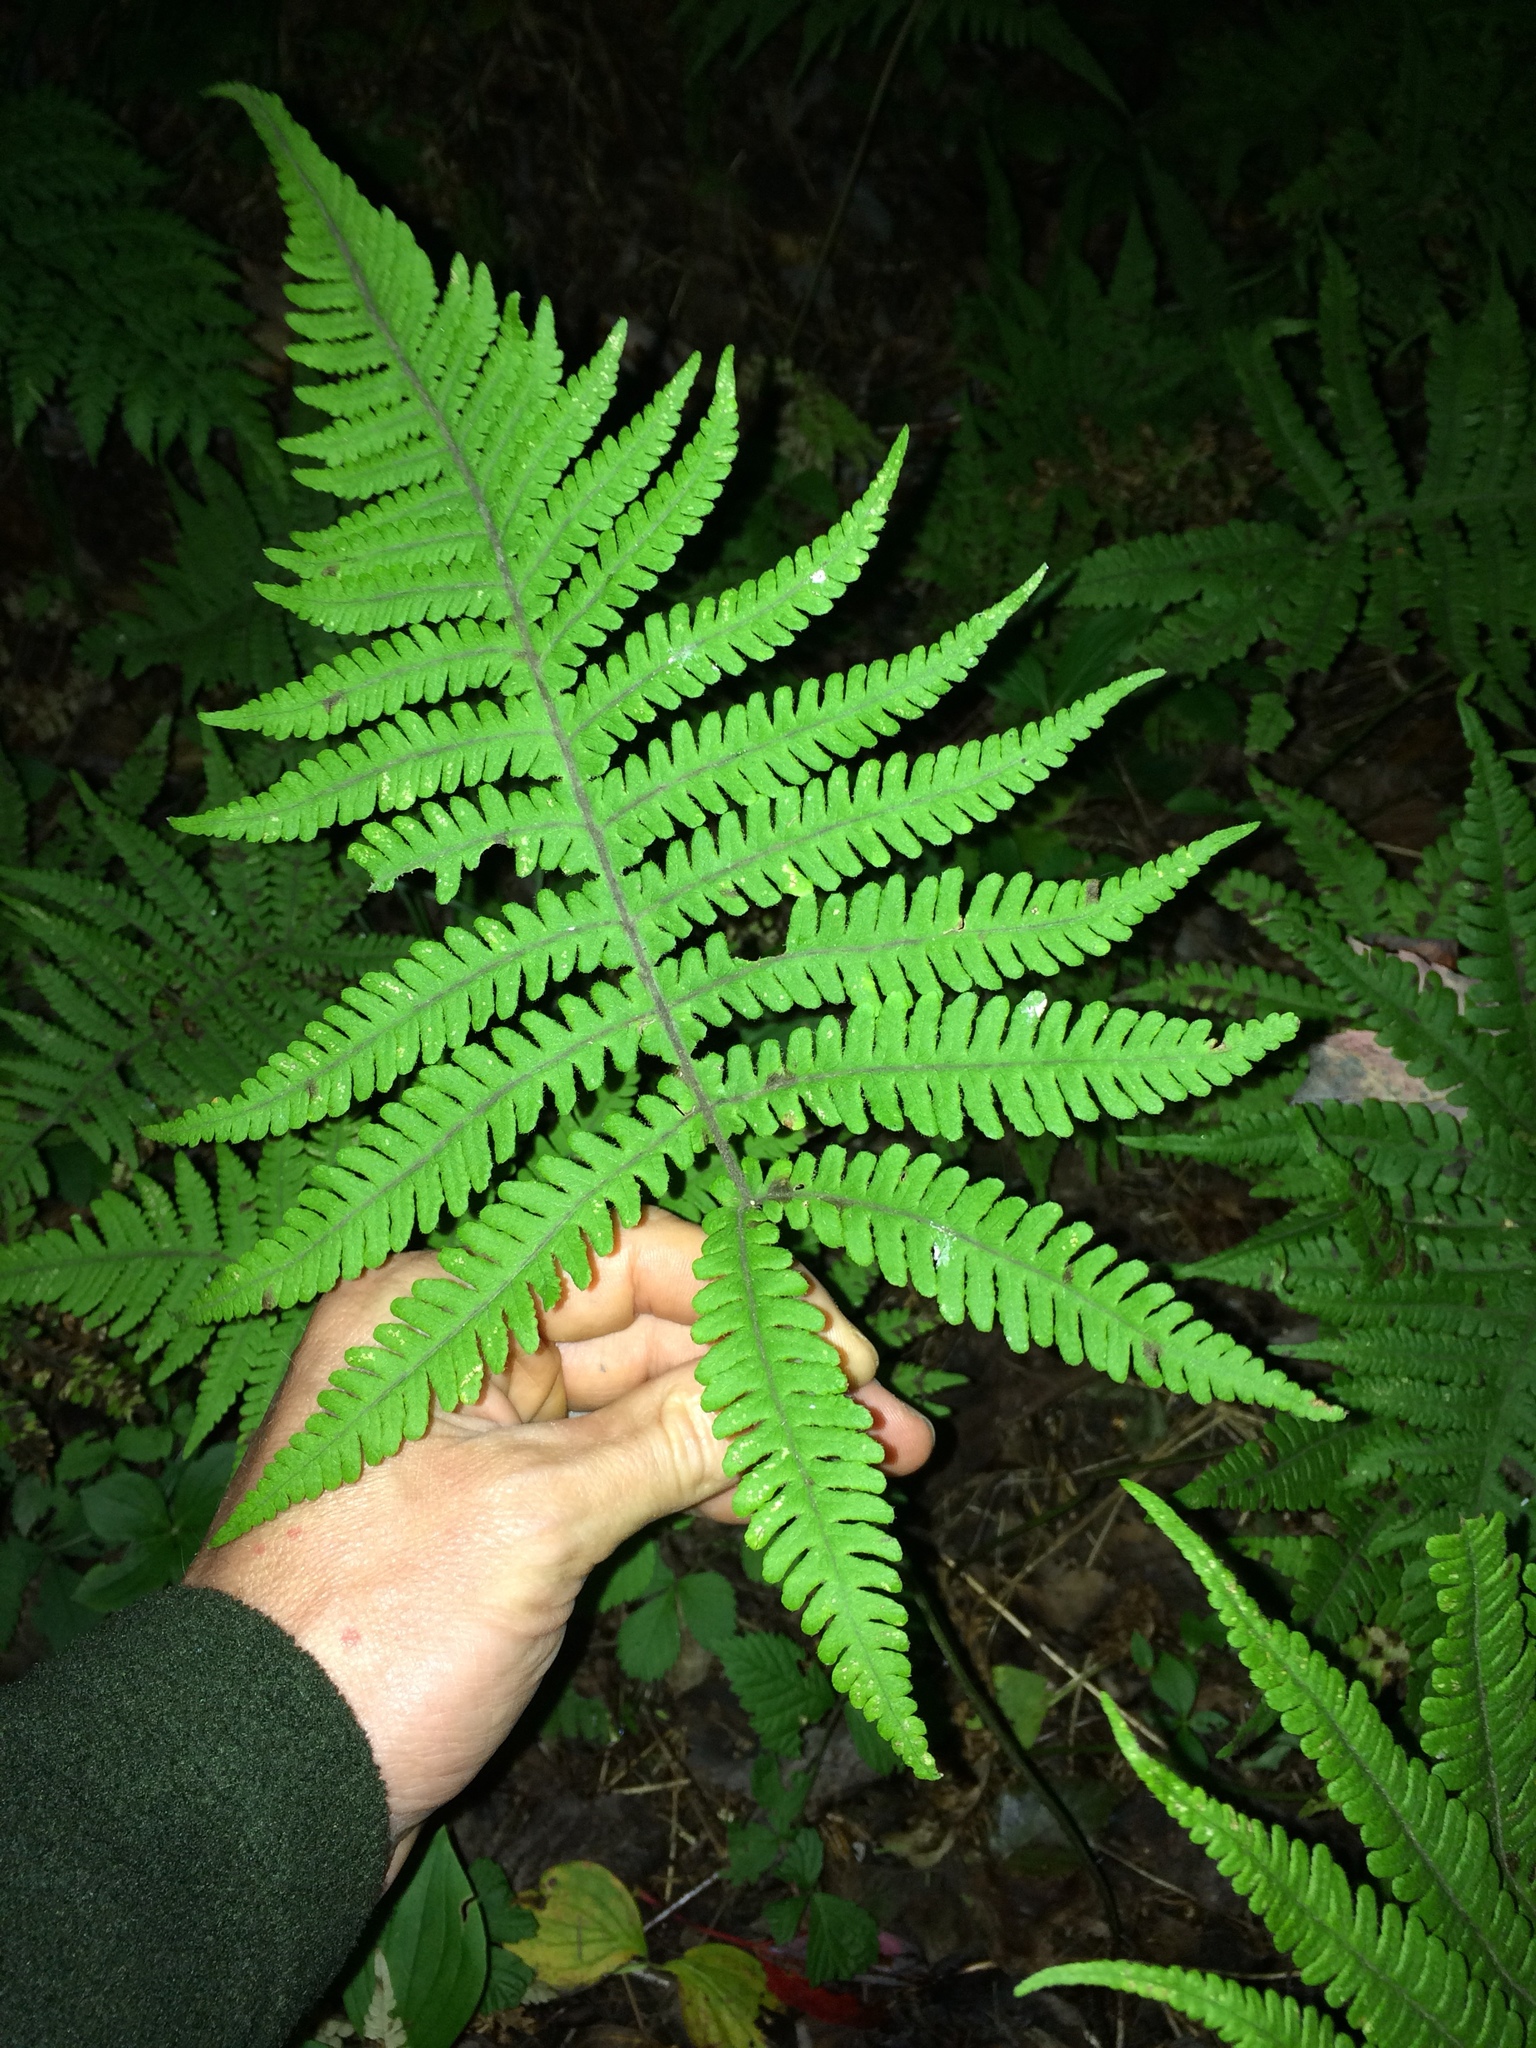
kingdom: Plantae
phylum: Tracheophyta
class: Polypodiopsida
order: Polypodiales
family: Thelypteridaceae
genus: Phegopteris
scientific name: Phegopteris connectilis
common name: Beech fern
